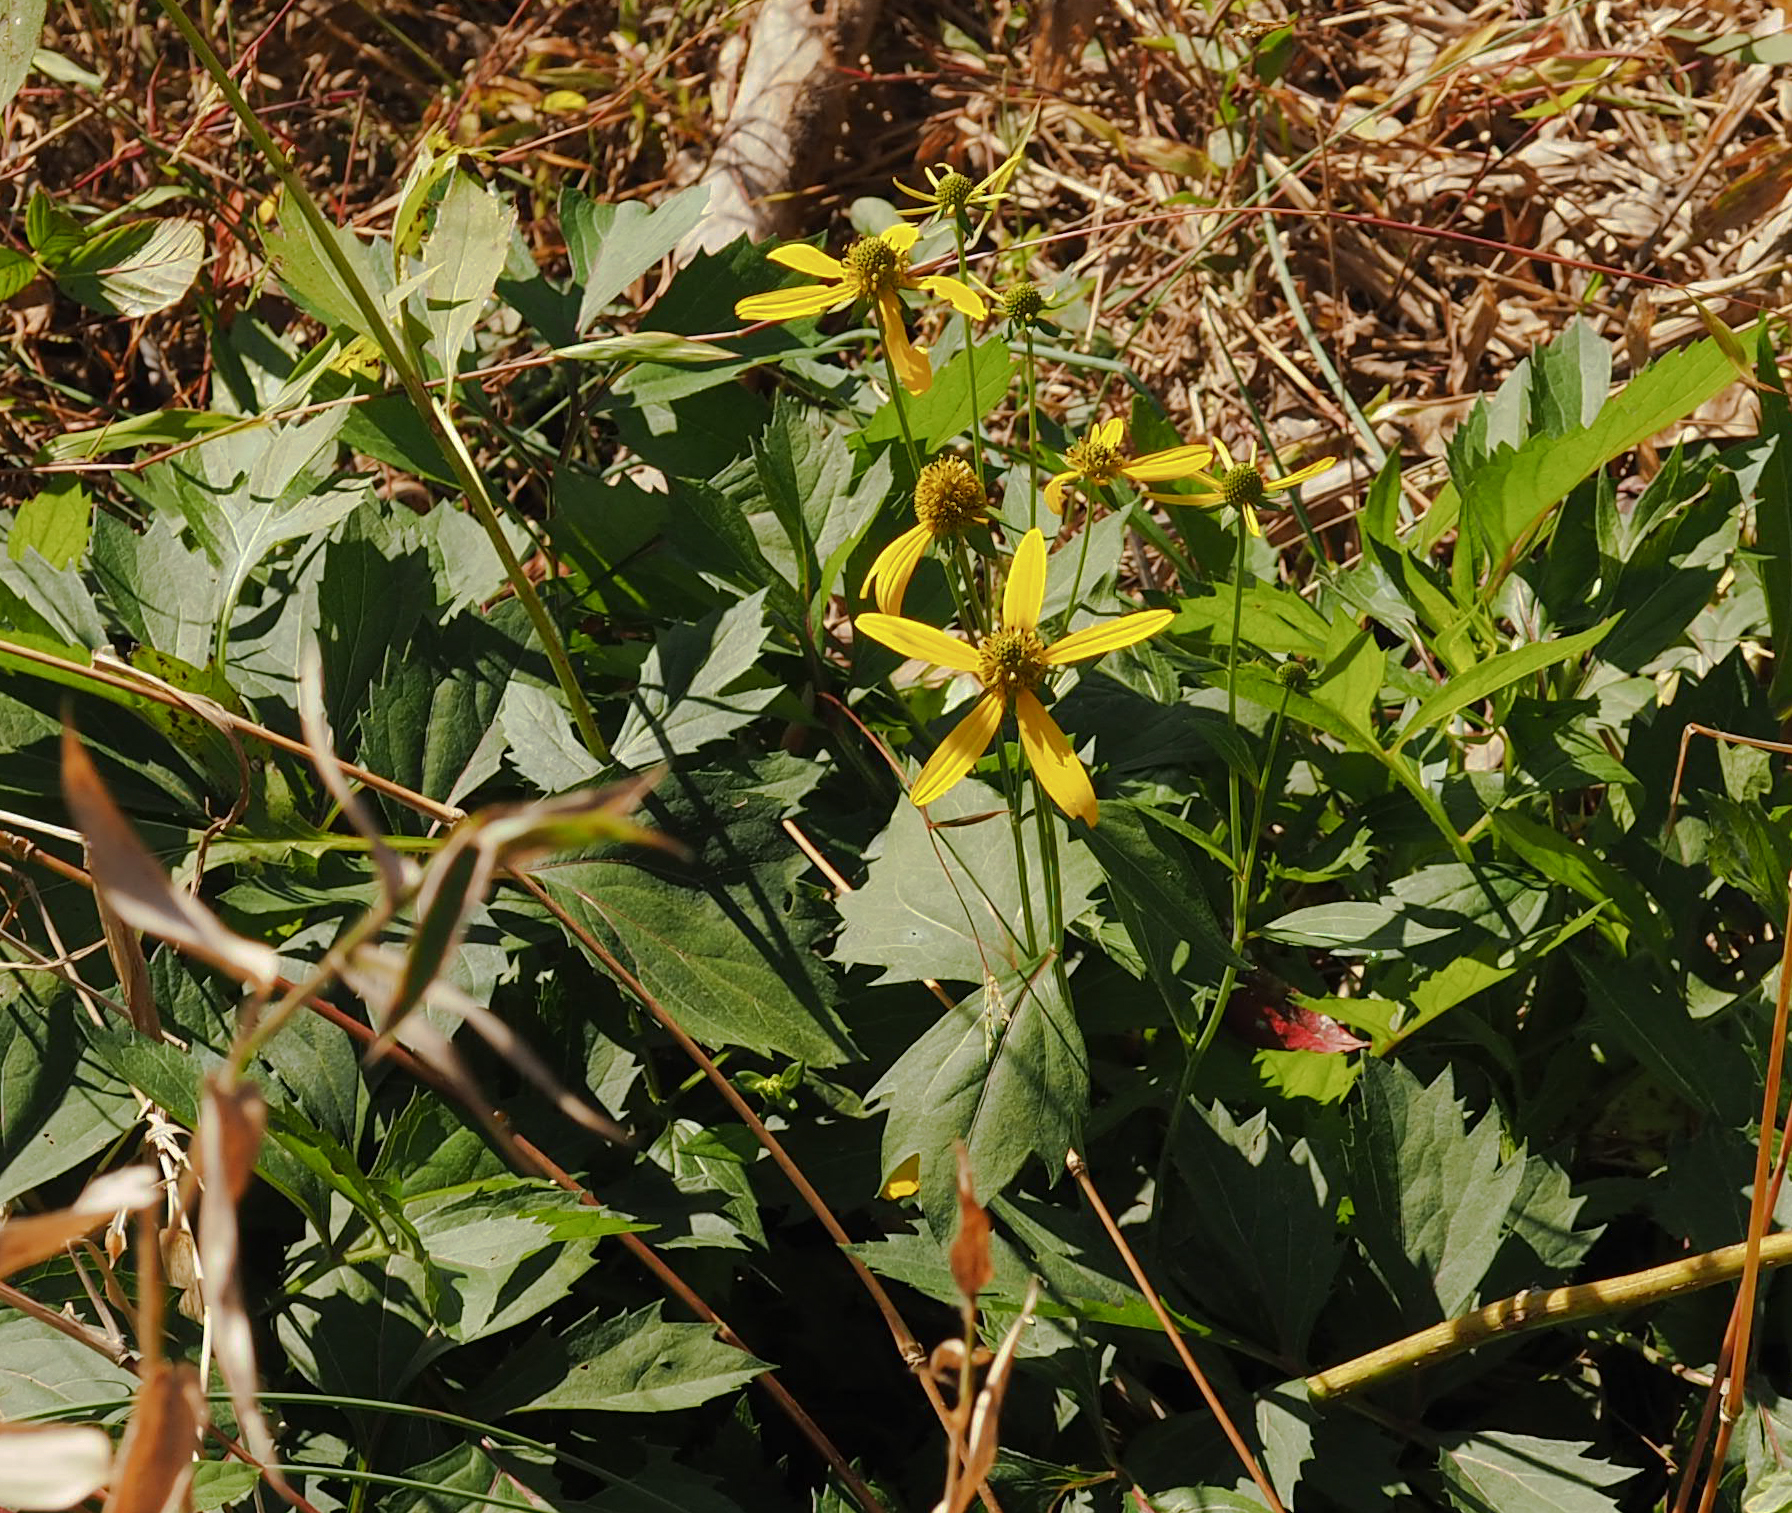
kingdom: Plantae
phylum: Tracheophyta
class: Magnoliopsida
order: Asterales
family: Asteraceae
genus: Rudbeckia
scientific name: Rudbeckia laciniata
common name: Coneflower
